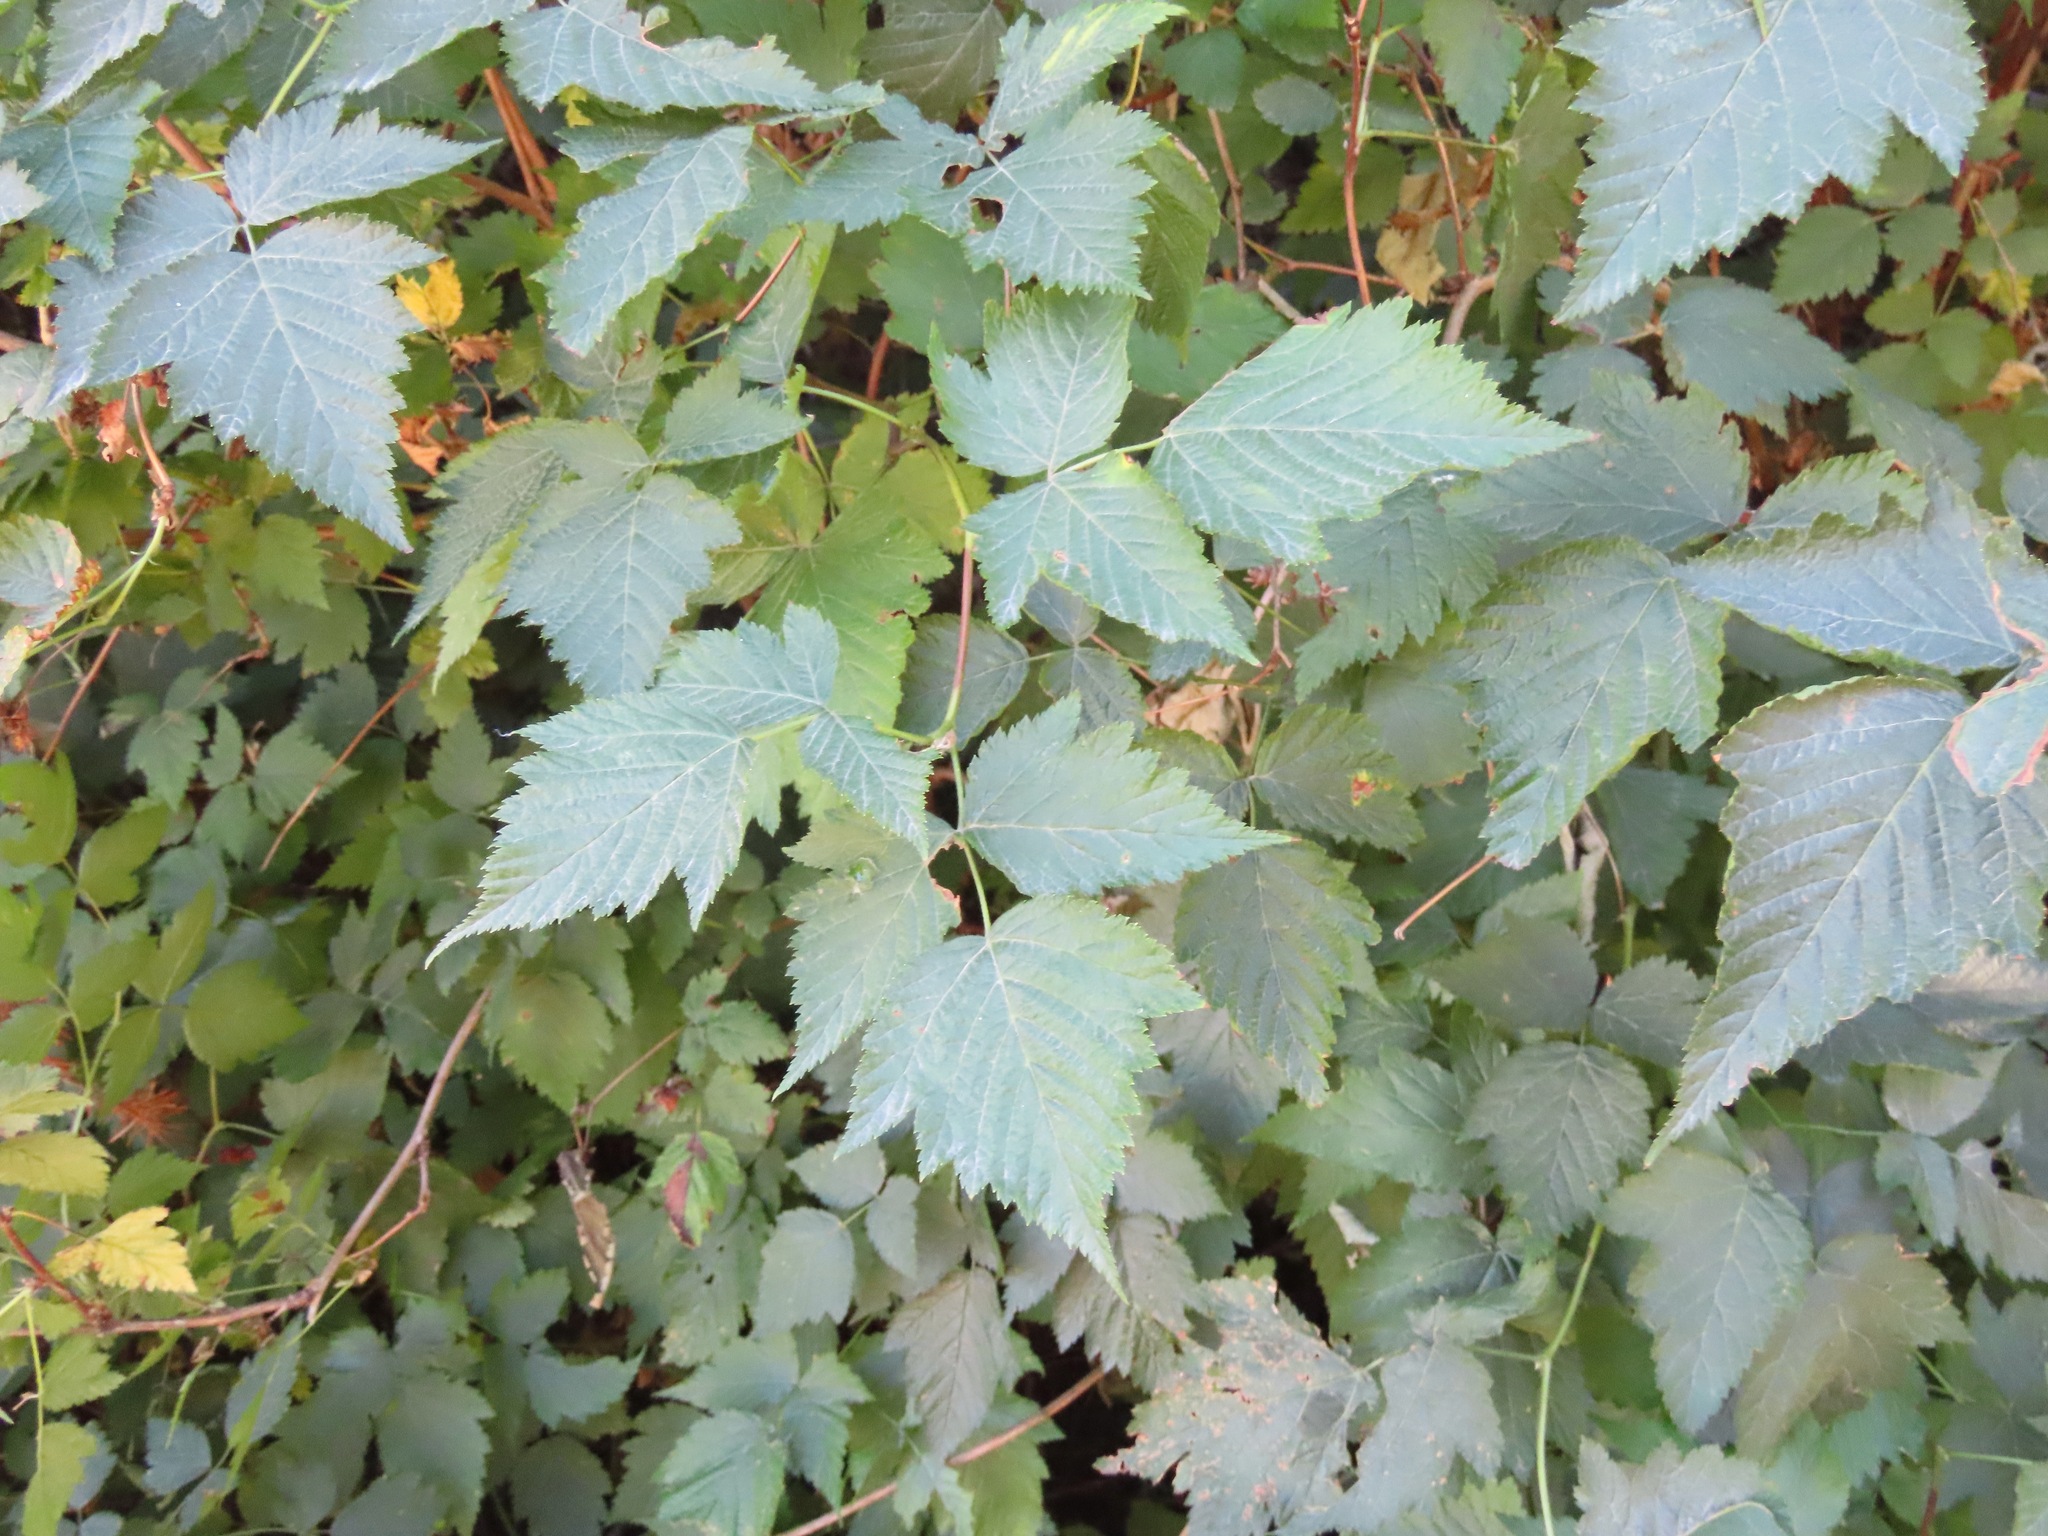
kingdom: Plantae
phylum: Tracheophyta
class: Magnoliopsida
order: Rosales
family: Rosaceae
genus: Rubus
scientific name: Rubus spectabilis
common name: Salmonberry
